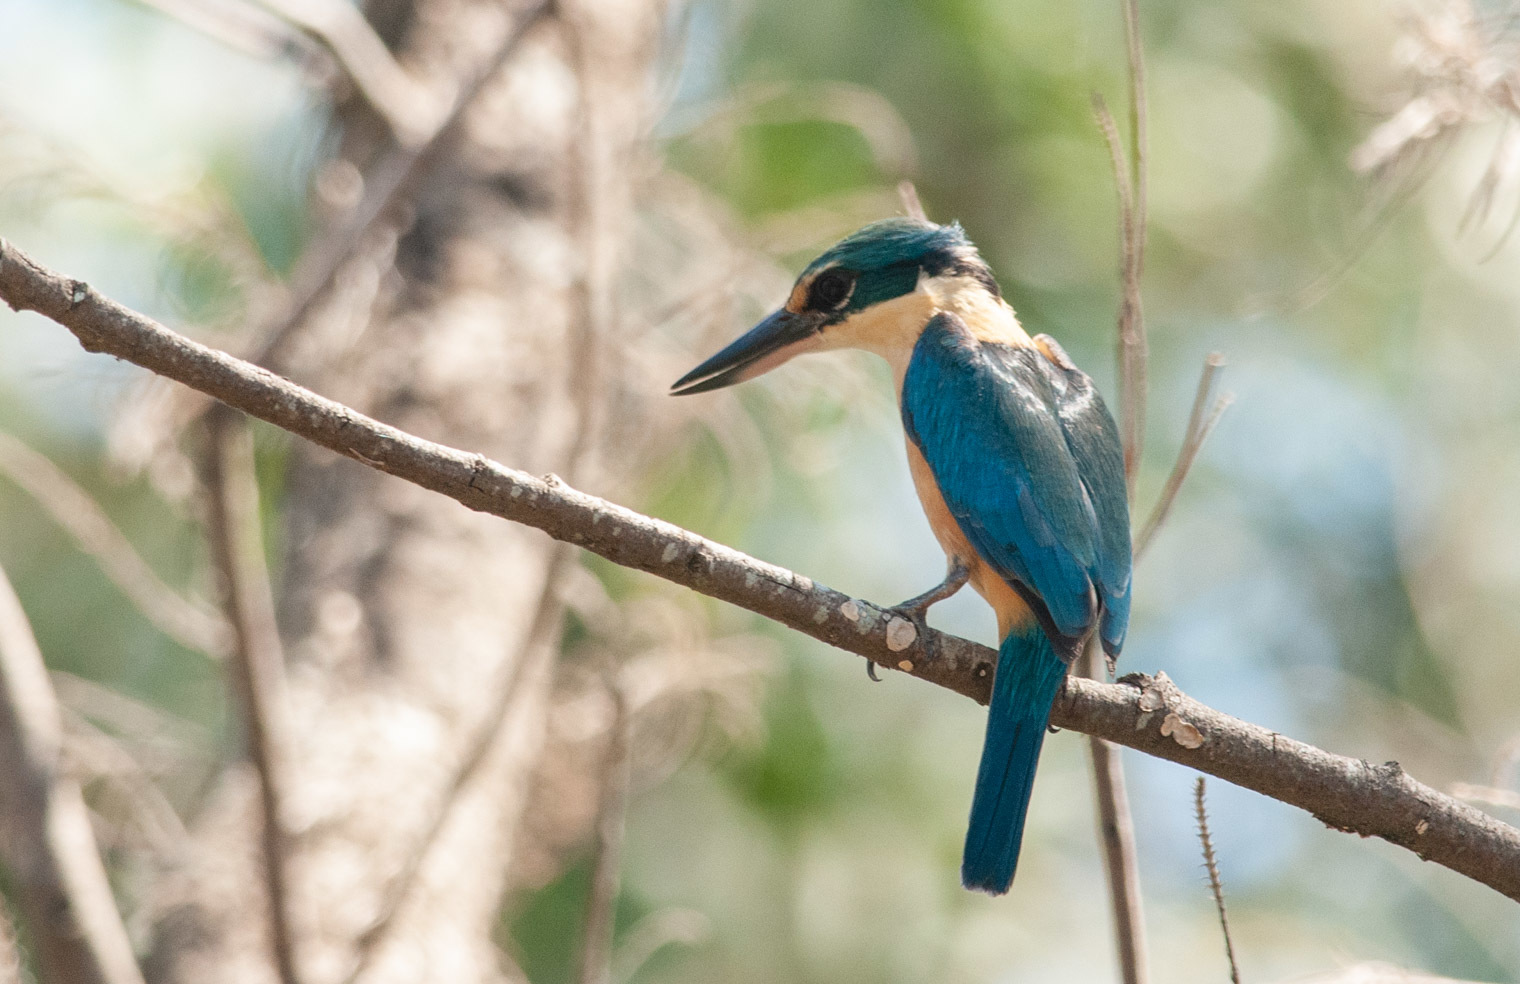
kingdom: Animalia
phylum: Chordata
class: Aves
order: Coraciiformes
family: Alcedinidae
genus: Todiramphus
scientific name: Todiramphus sanctus
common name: Sacred kingfisher
